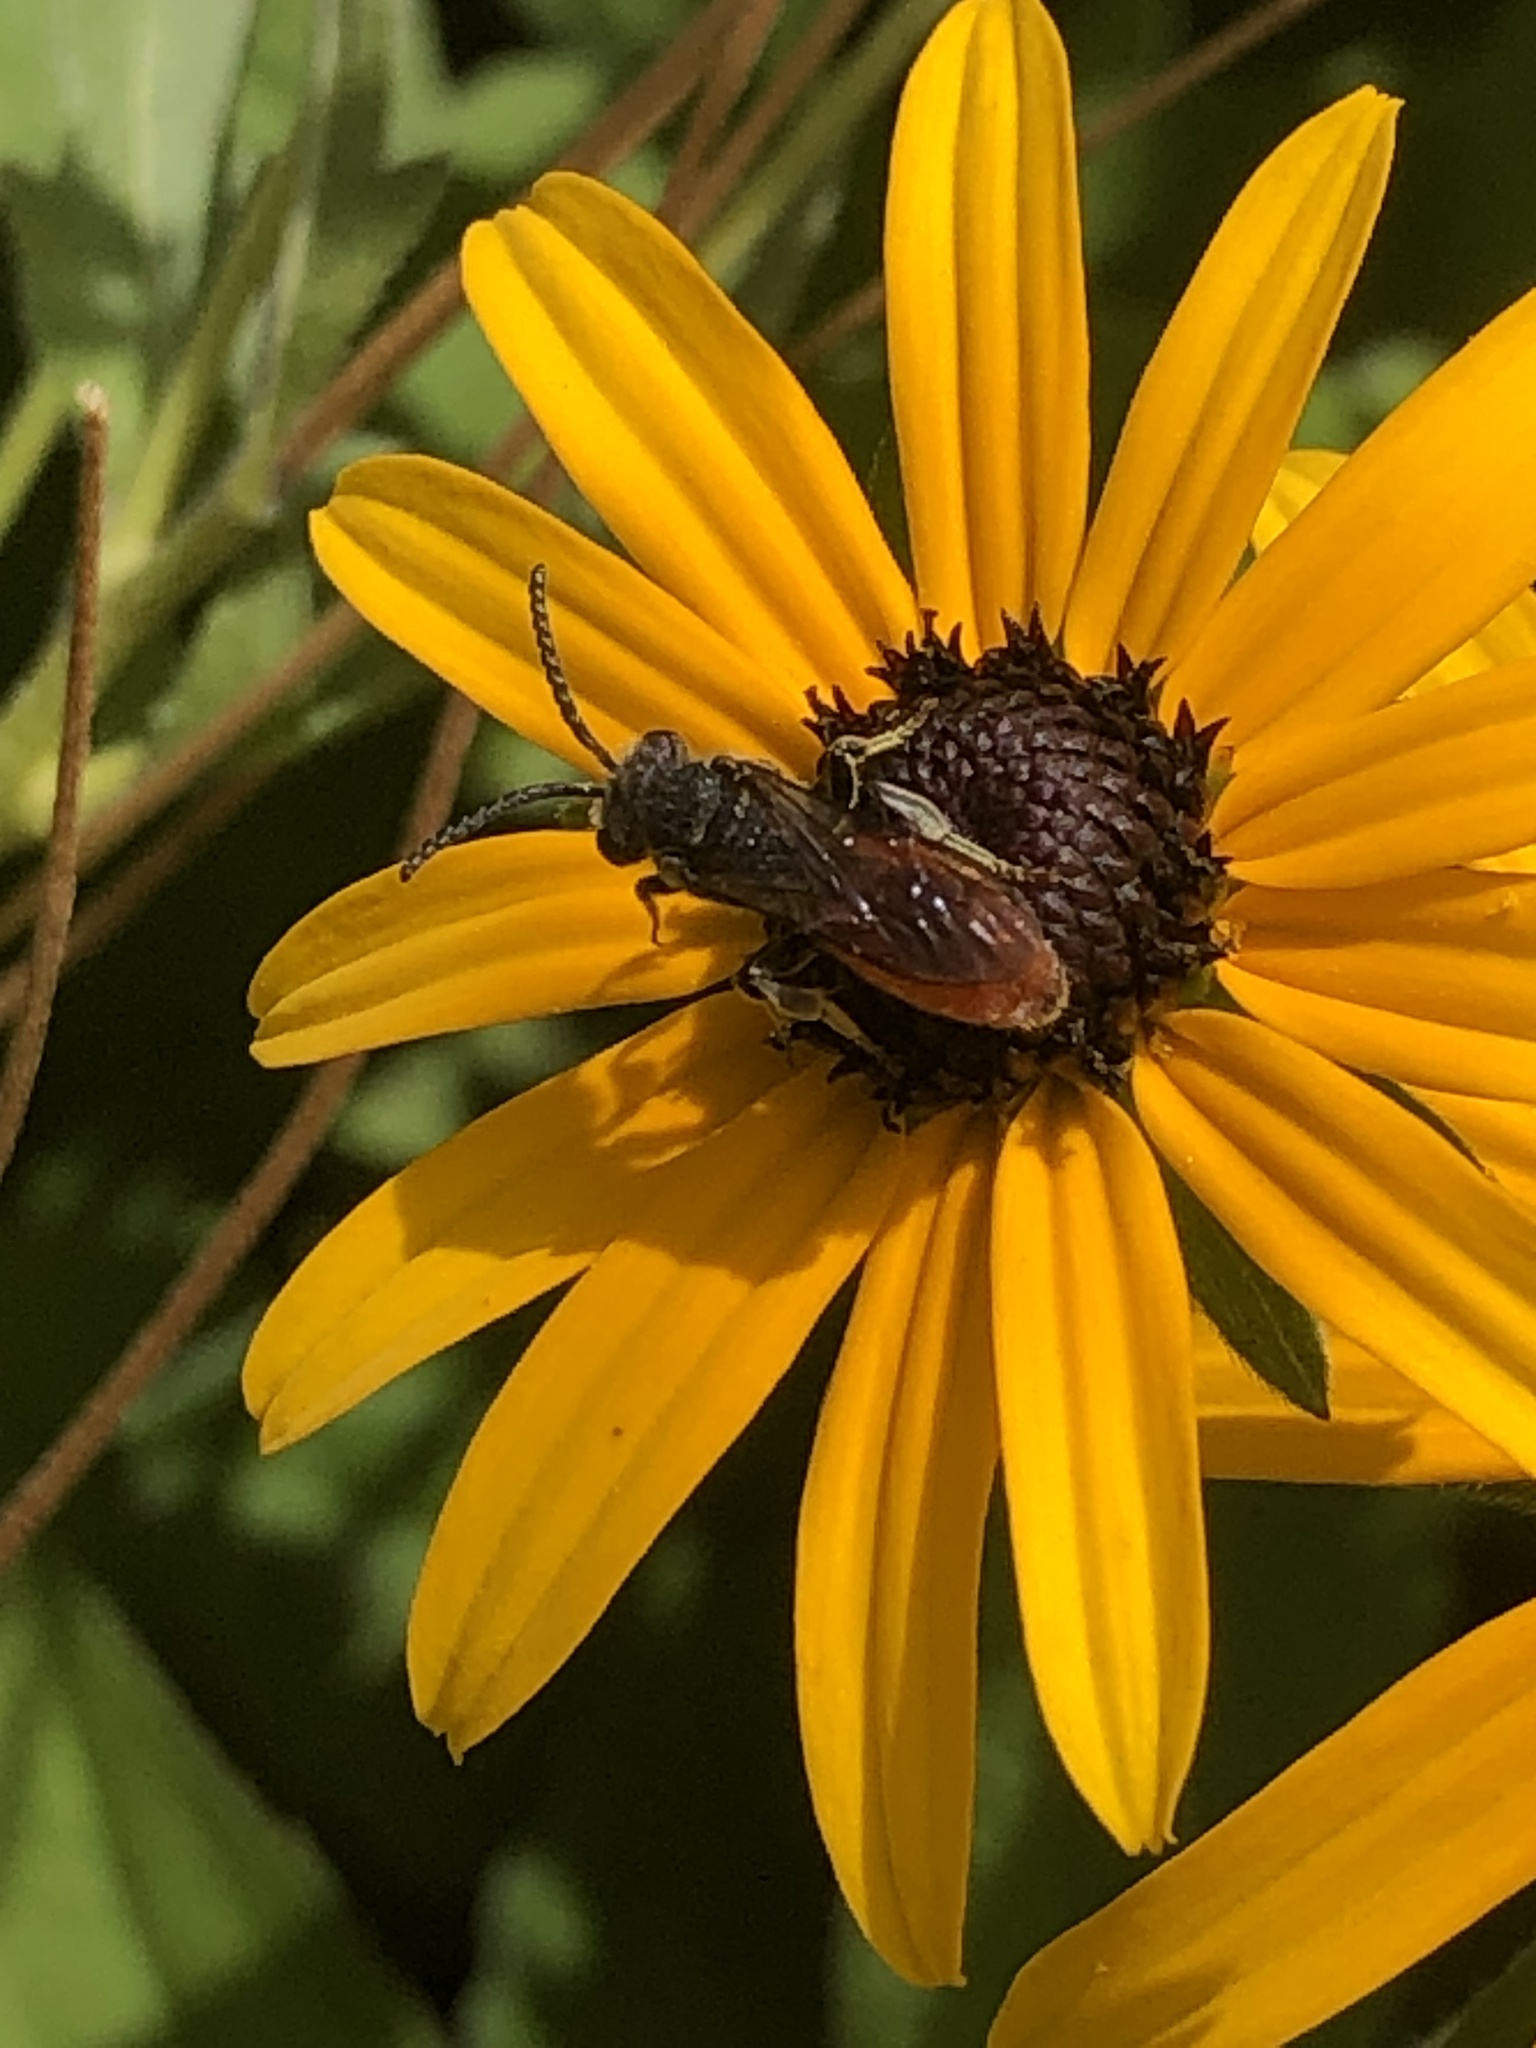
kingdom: Animalia
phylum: Arthropoda
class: Insecta
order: Hymenoptera
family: Halictidae
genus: Sphecodes
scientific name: Sphecodes albilabris
